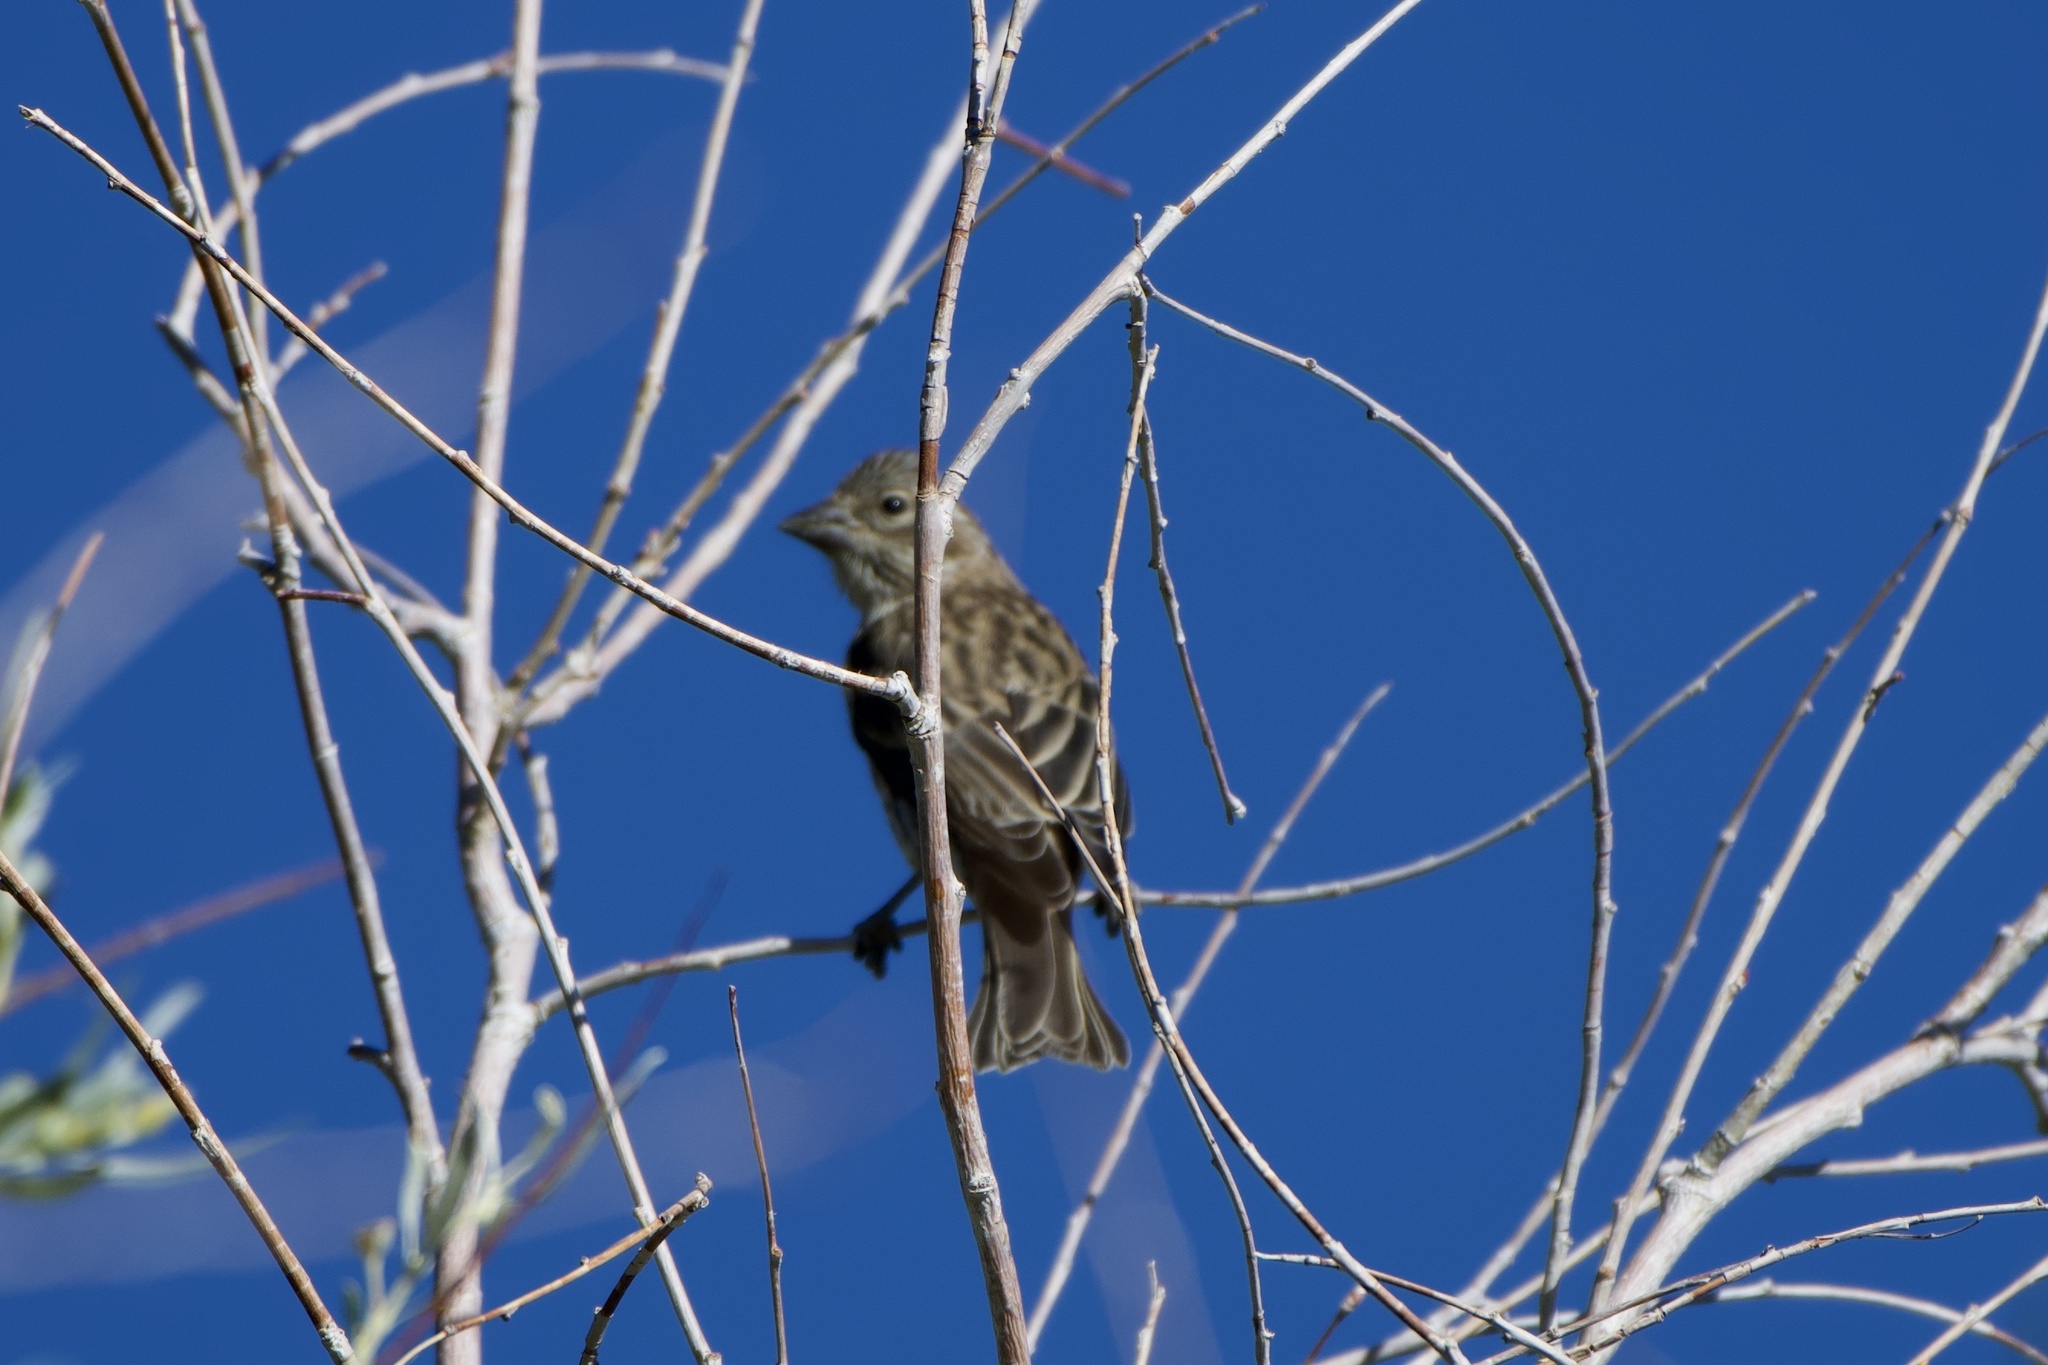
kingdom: Animalia
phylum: Chordata
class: Aves
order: Passeriformes
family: Fringillidae
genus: Haemorhous
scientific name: Haemorhous cassinii
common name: Cassin's finch
